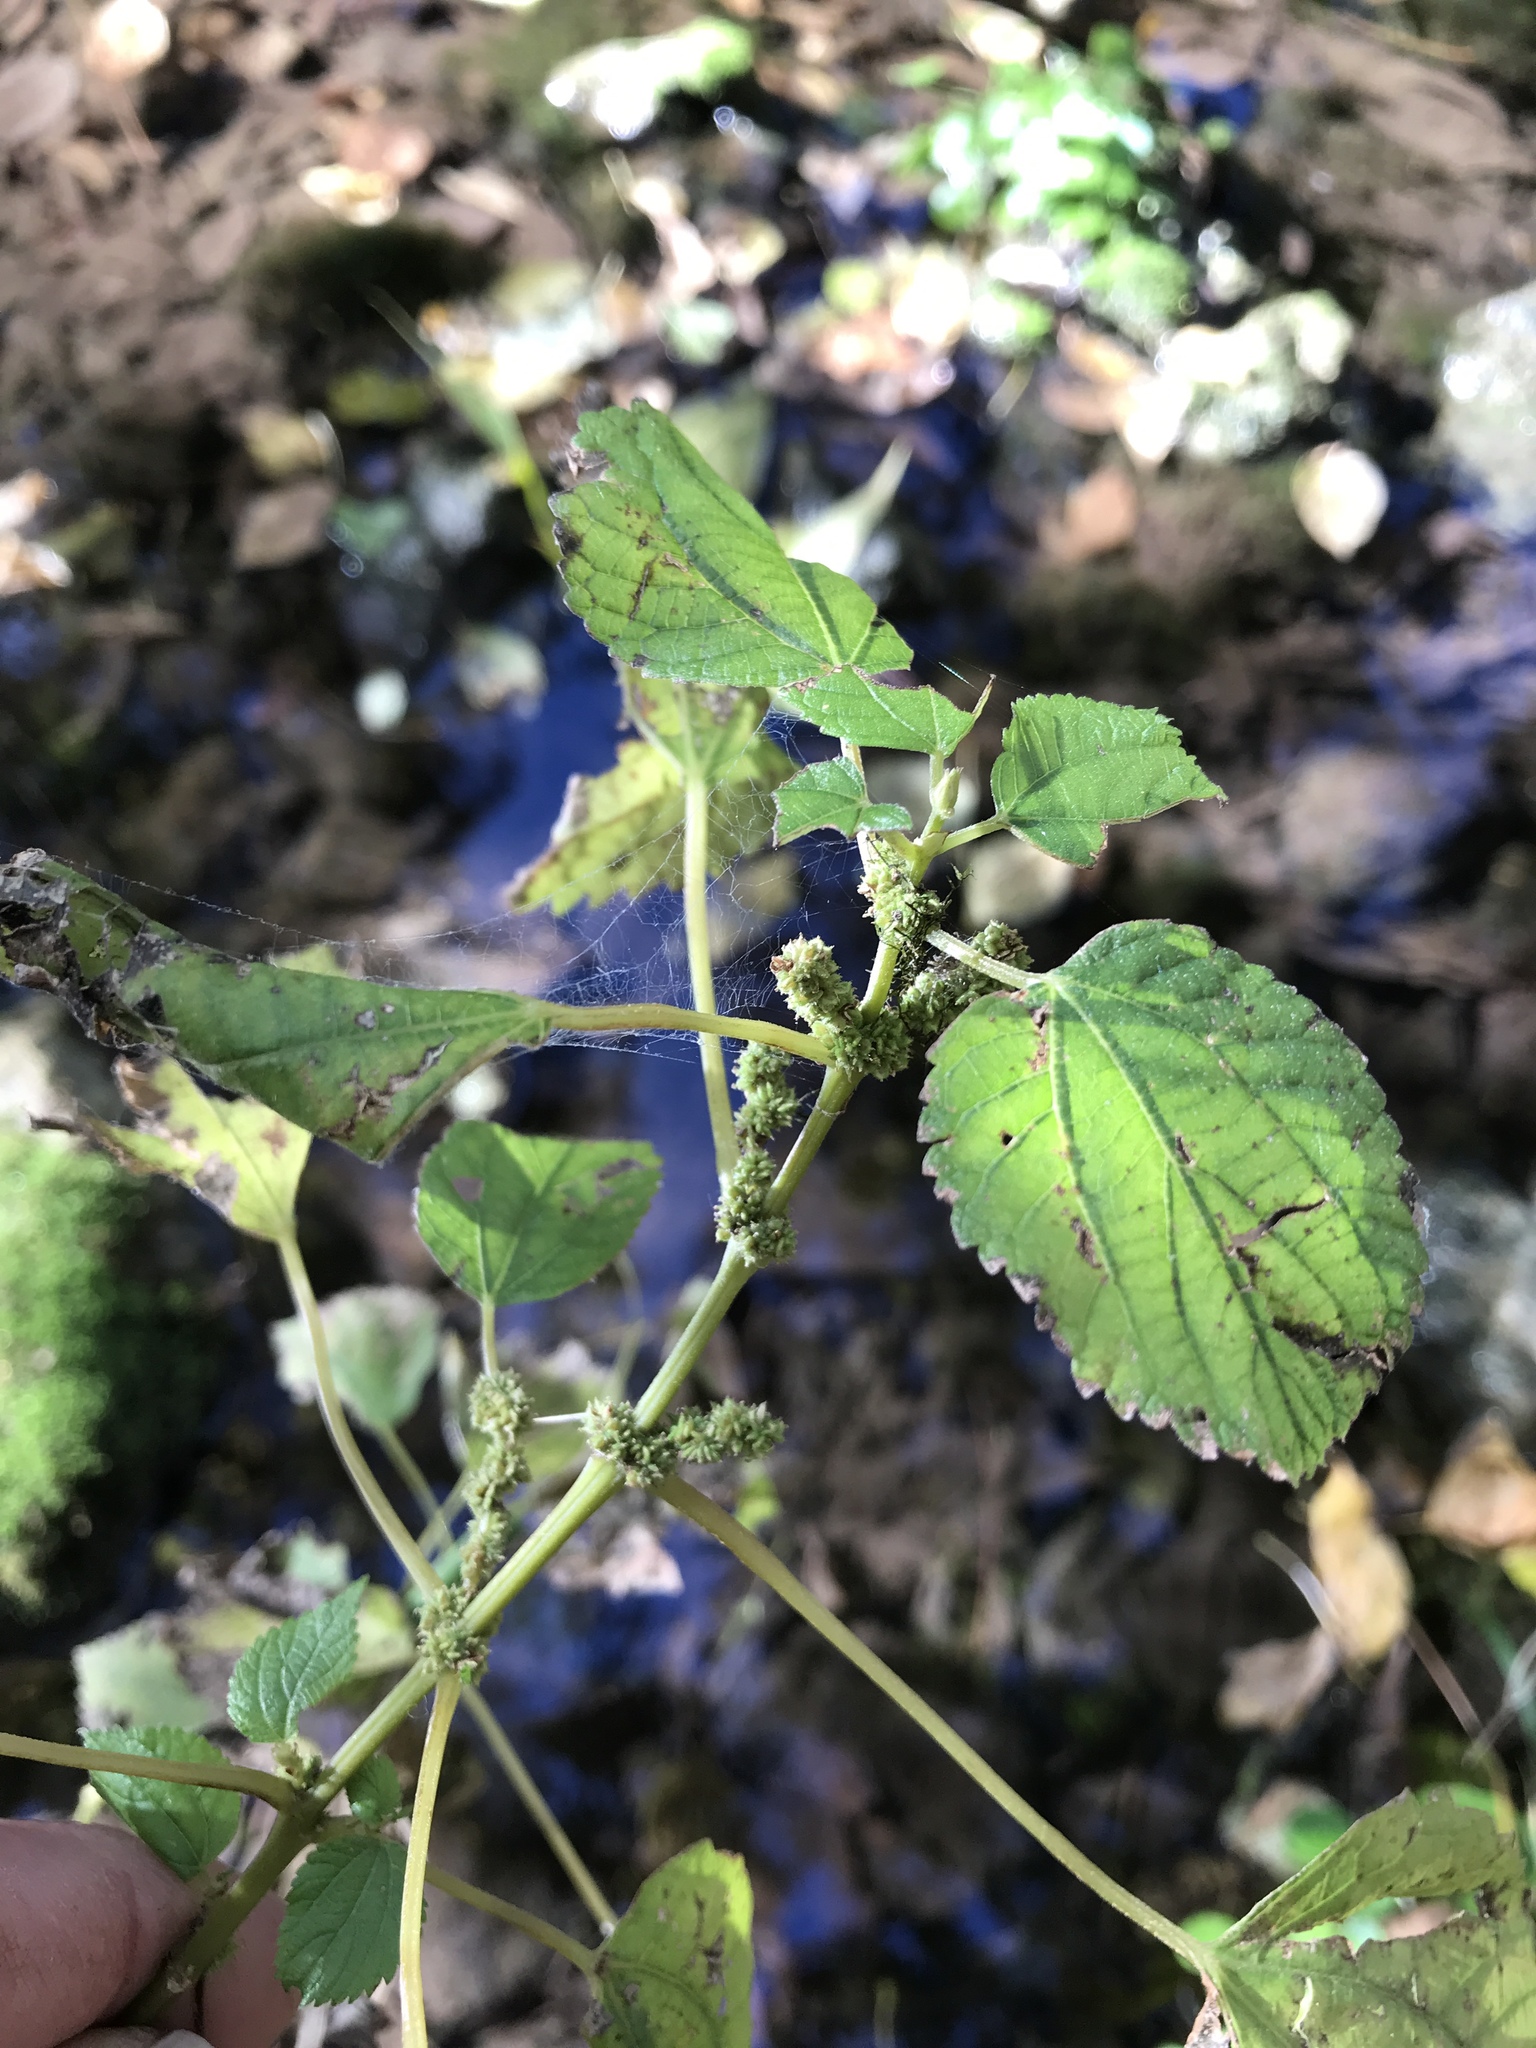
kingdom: Plantae
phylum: Tracheophyta
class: Magnoliopsida
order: Rosales
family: Urticaceae
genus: Boehmeria
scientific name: Boehmeria cylindrica
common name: Bog-hemp
